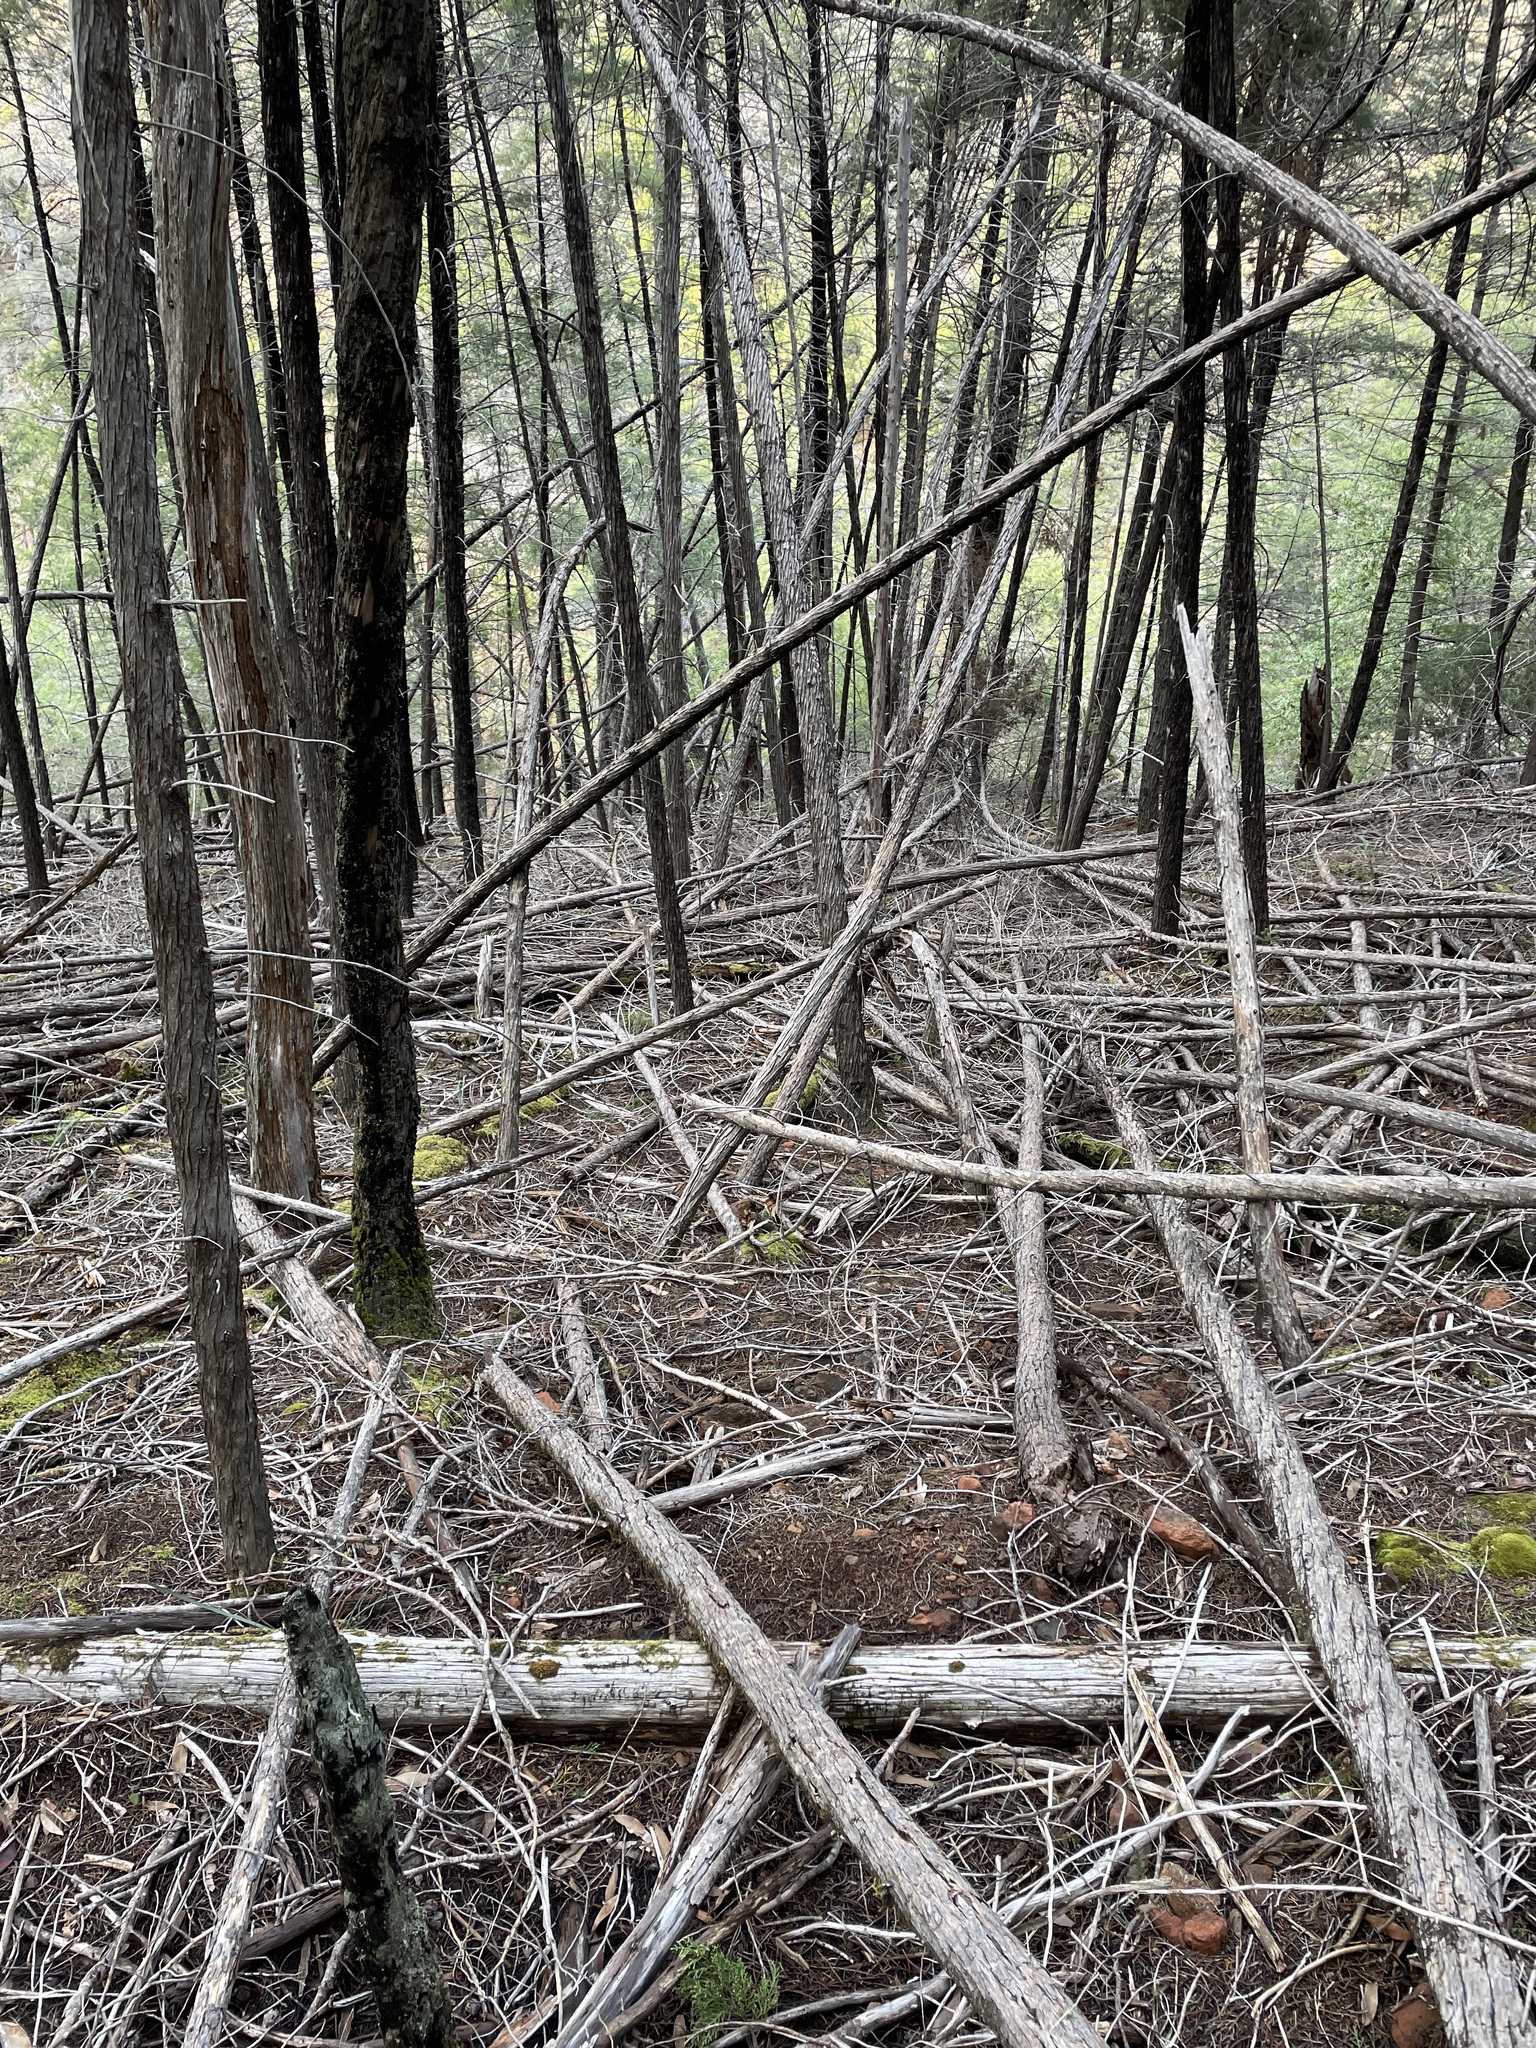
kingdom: Plantae
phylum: Tracheophyta
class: Pinopsida
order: Pinales
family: Cupressaceae
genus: Cupressus
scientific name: Cupressus sargentii
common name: Sargent cypress
